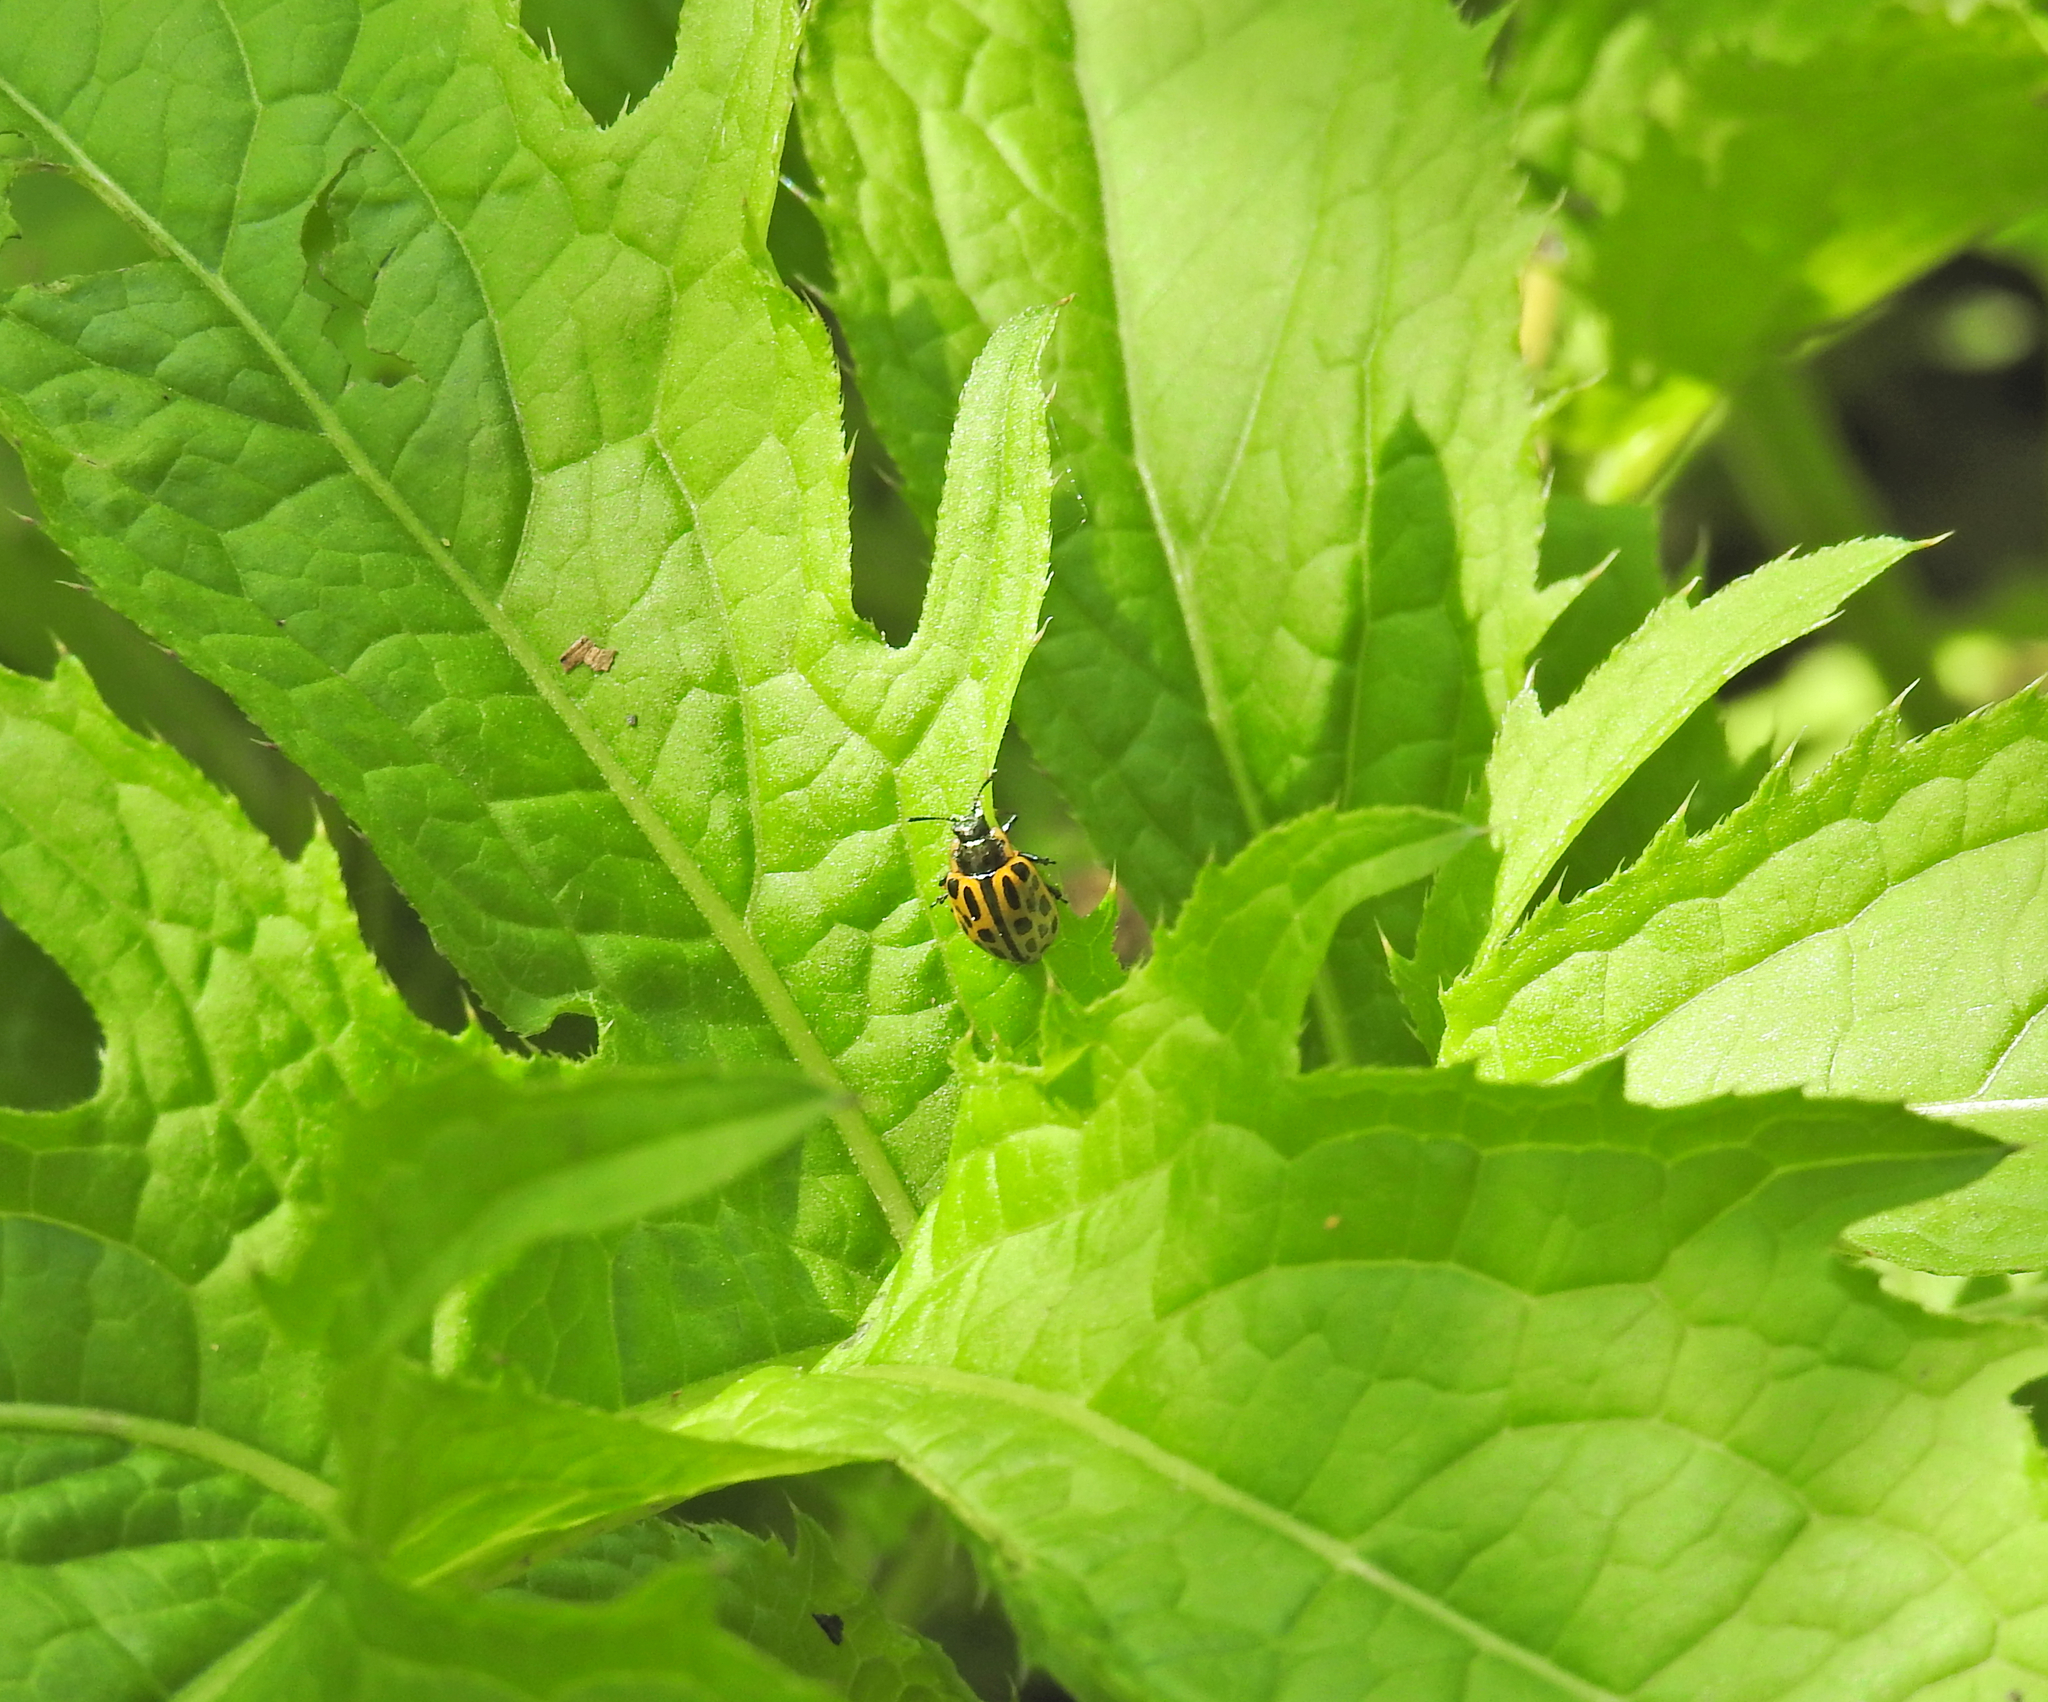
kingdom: Animalia
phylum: Arthropoda
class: Insecta
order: Coleoptera
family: Chrysomelidae
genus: Chrysomela
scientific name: Chrysomela vigintipunctata
